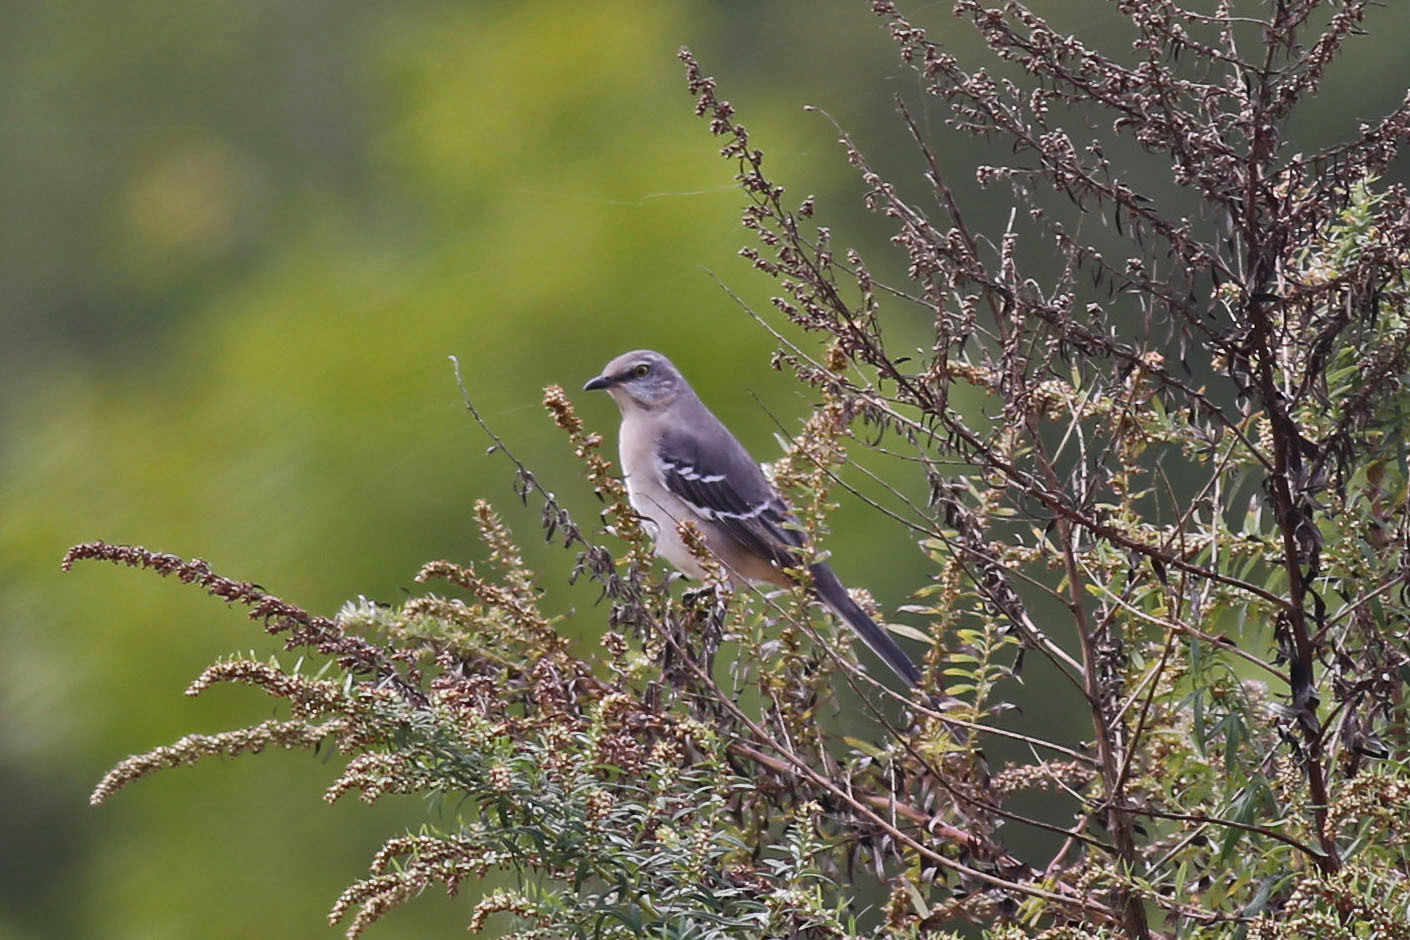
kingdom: Animalia
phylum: Chordata
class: Aves
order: Passeriformes
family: Mimidae
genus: Mimus
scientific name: Mimus polyglottos
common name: Northern mockingbird
